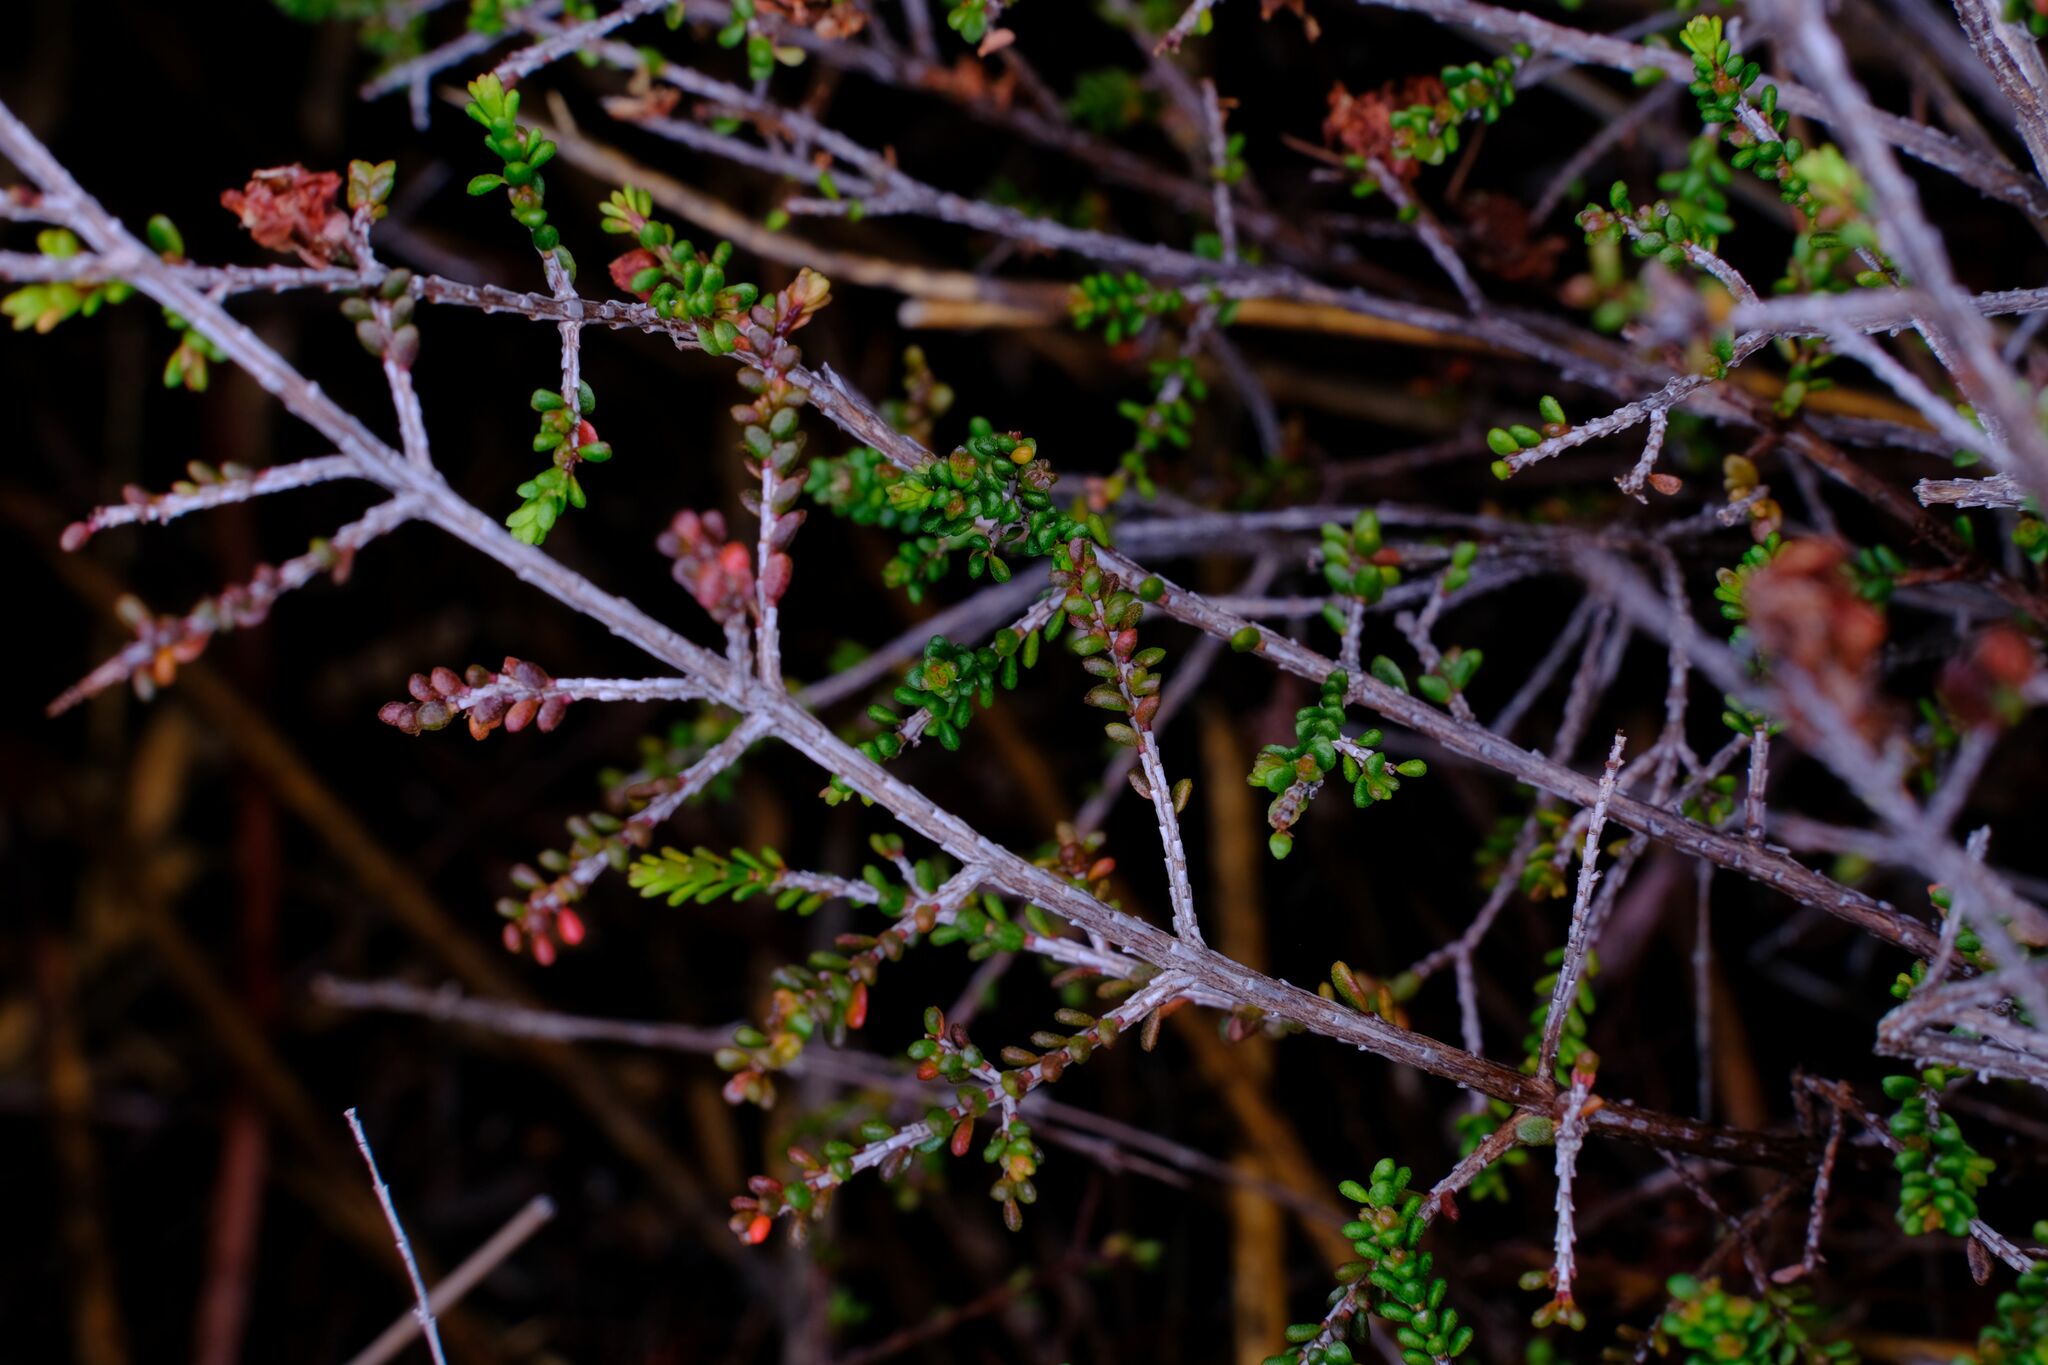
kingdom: Plantae
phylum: Tracheophyta
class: Magnoliopsida
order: Myrtales
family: Myrtaceae
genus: Ochrosperma
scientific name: Ochrosperma citriodorum
